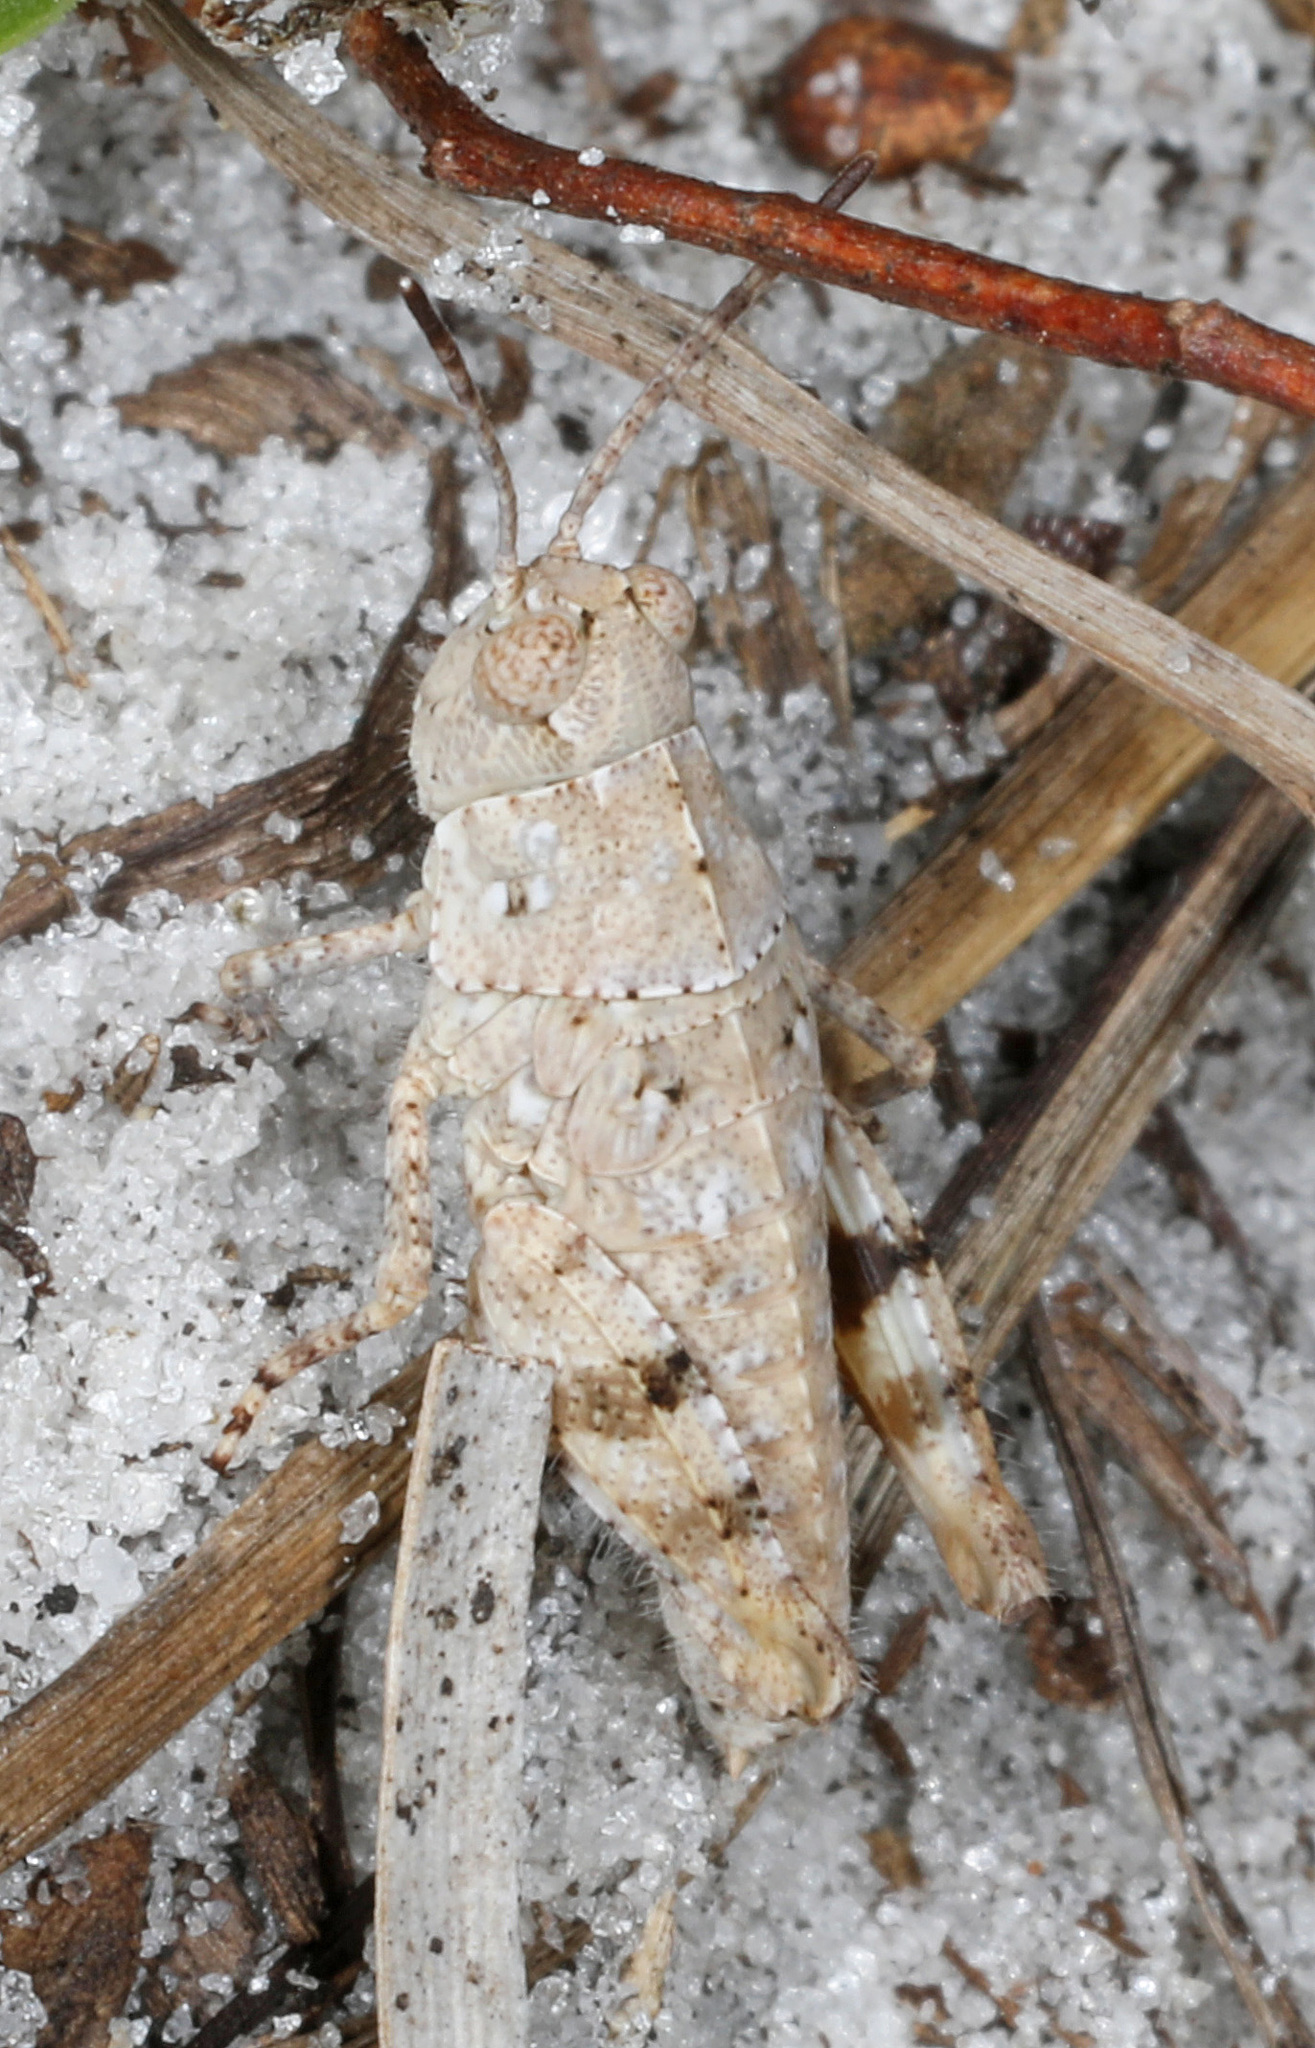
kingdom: Animalia
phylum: Arthropoda
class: Insecta
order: Orthoptera
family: Acrididae
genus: Trimerotropis
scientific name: Trimerotropis maritima
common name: Seaside locust
